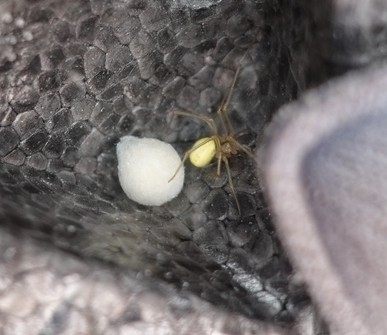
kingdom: Animalia
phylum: Arthropoda
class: Arachnida
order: Araneae
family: Theridiidae
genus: Enoplognatha
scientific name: Enoplognatha ovata
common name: Common candy-striped spider
